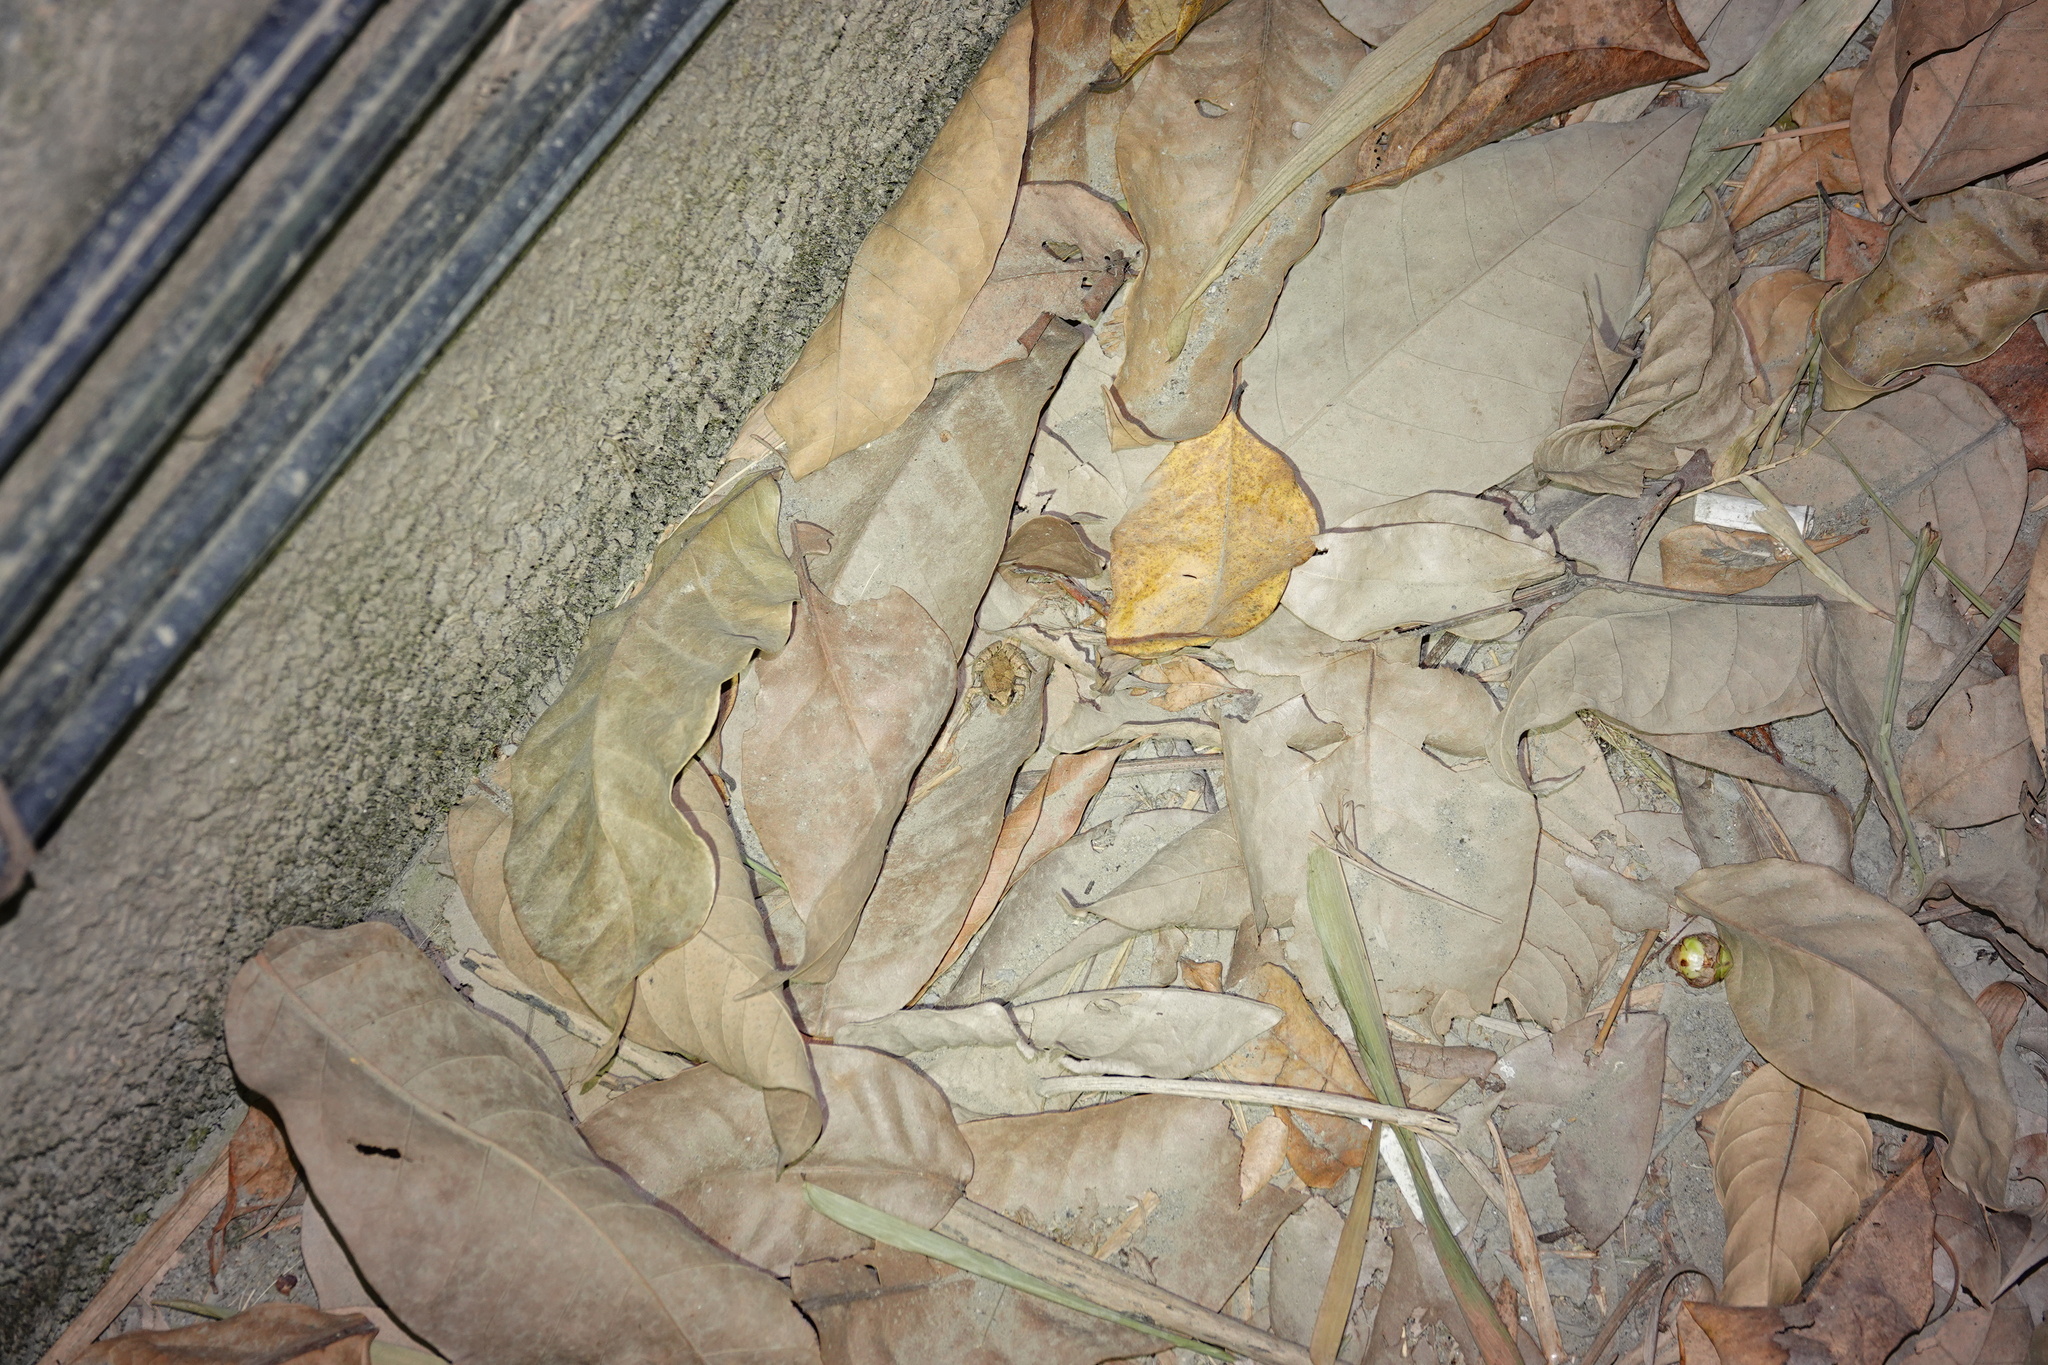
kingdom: Animalia
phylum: Chordata
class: Amphibia
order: Anura
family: Microhylidae
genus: Microhyla
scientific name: Microhyla fissipes
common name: Ornate narrow-mouthed frog
